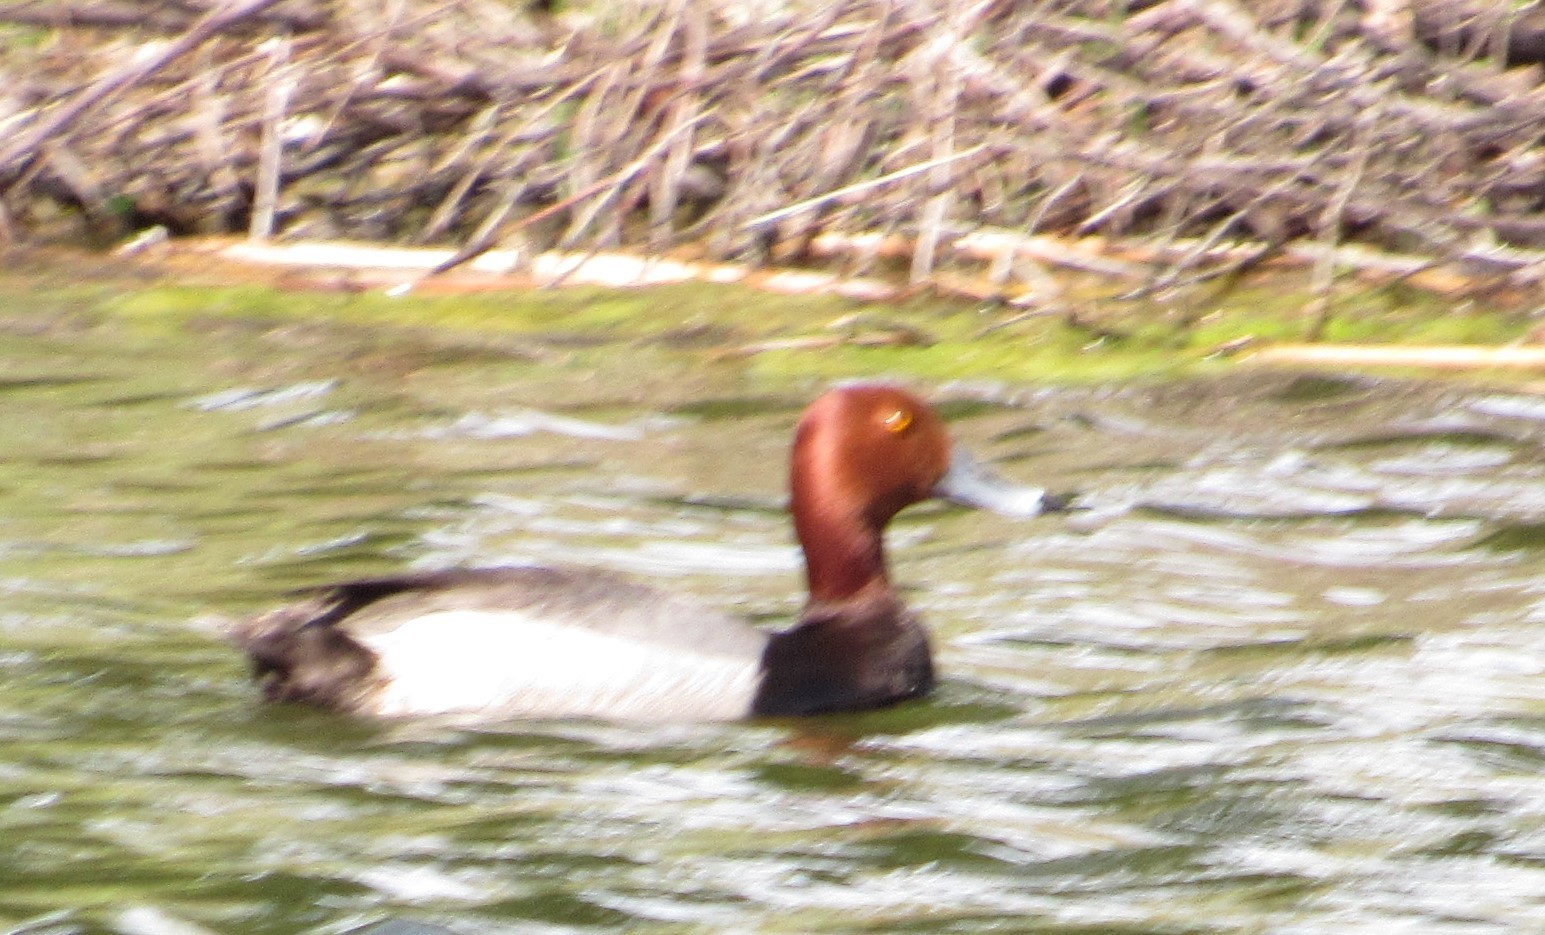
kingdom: Animalia
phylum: Chordata
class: Aves
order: Anseriformes
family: Anatidae
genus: Aythya
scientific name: Aythya americana
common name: Redhead
